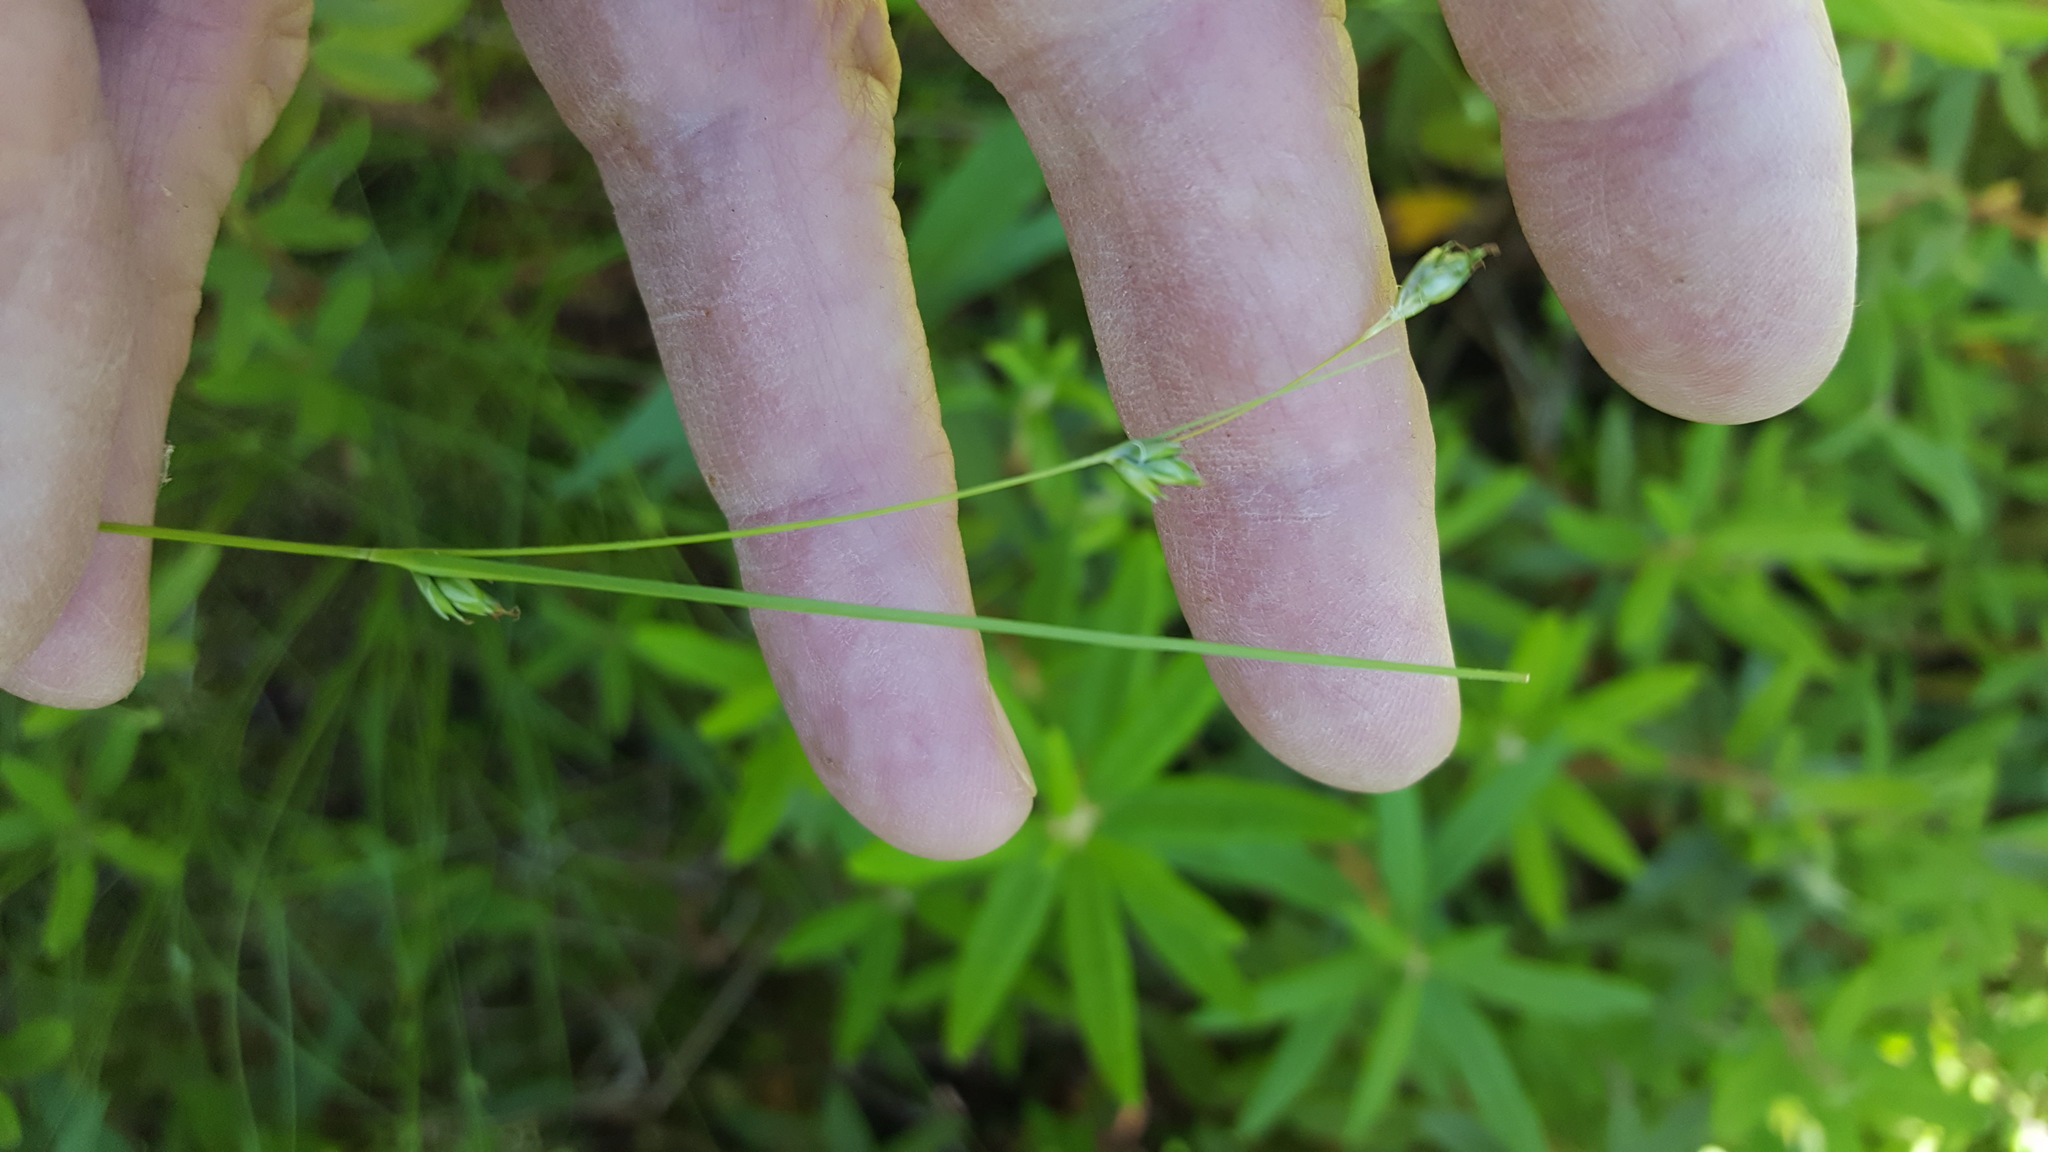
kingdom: Plantae
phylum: Tracheophyta
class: Liliopsida
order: Poales
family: Cyperaceae
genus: Carex
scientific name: Carex trisperma
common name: Three-seeded sedge
